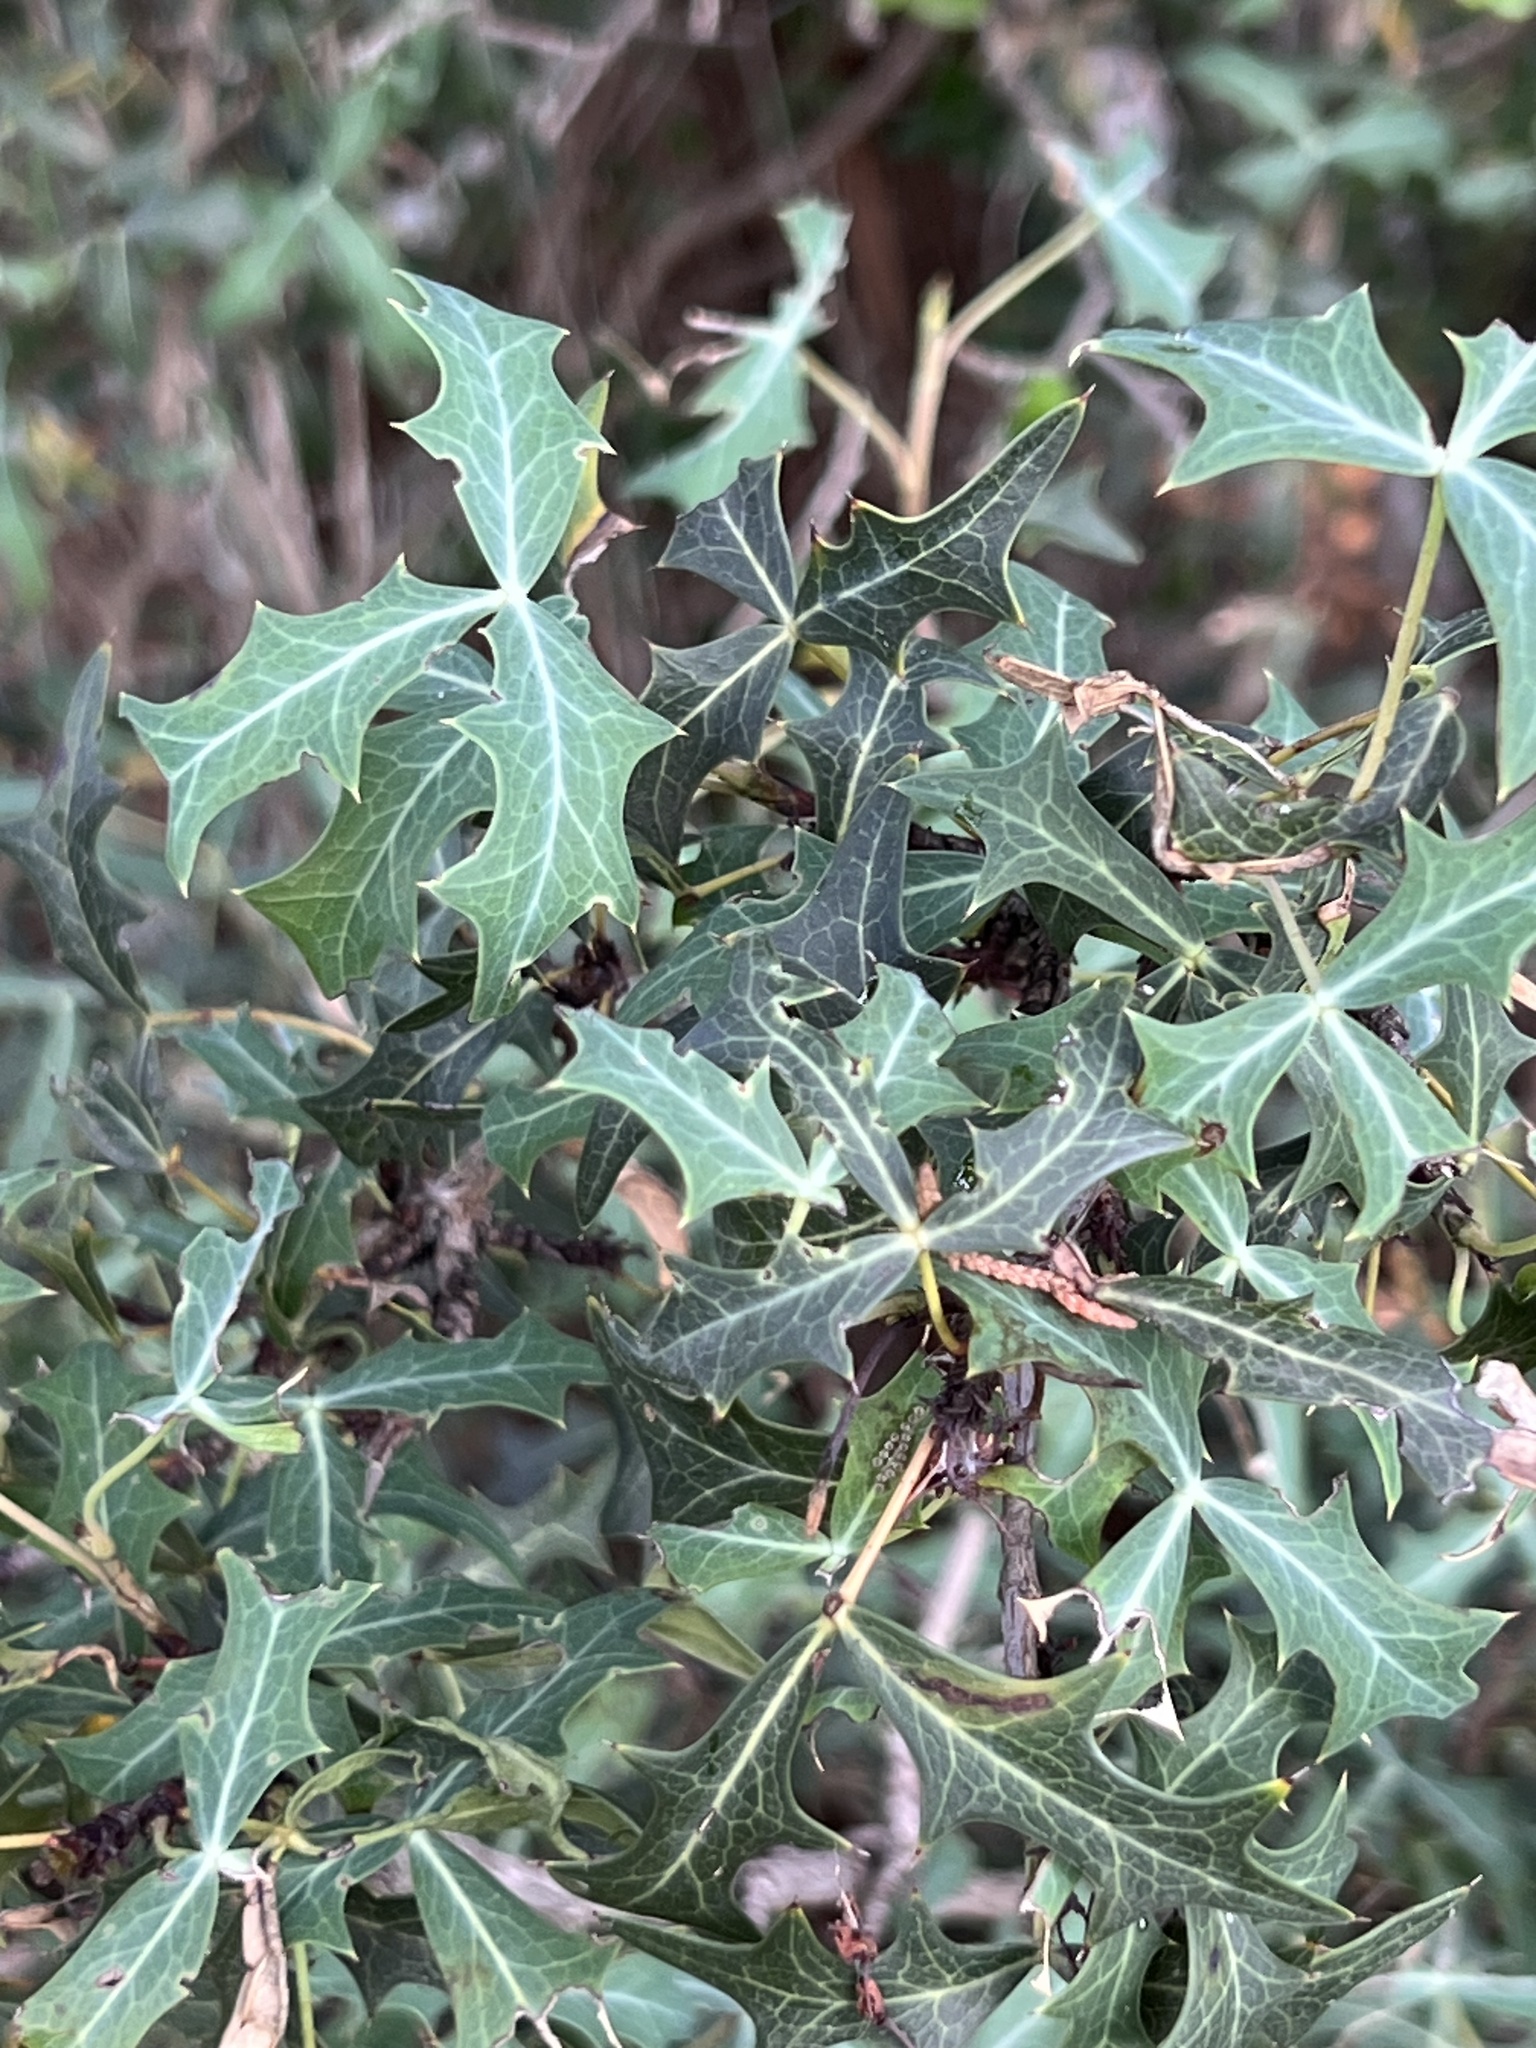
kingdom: Plantae
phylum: Tracheophyta
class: Magnoliopsida
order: Ranunculales
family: Berberidaceae
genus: Alloberberis
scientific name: Alloberberis trifoliolata
